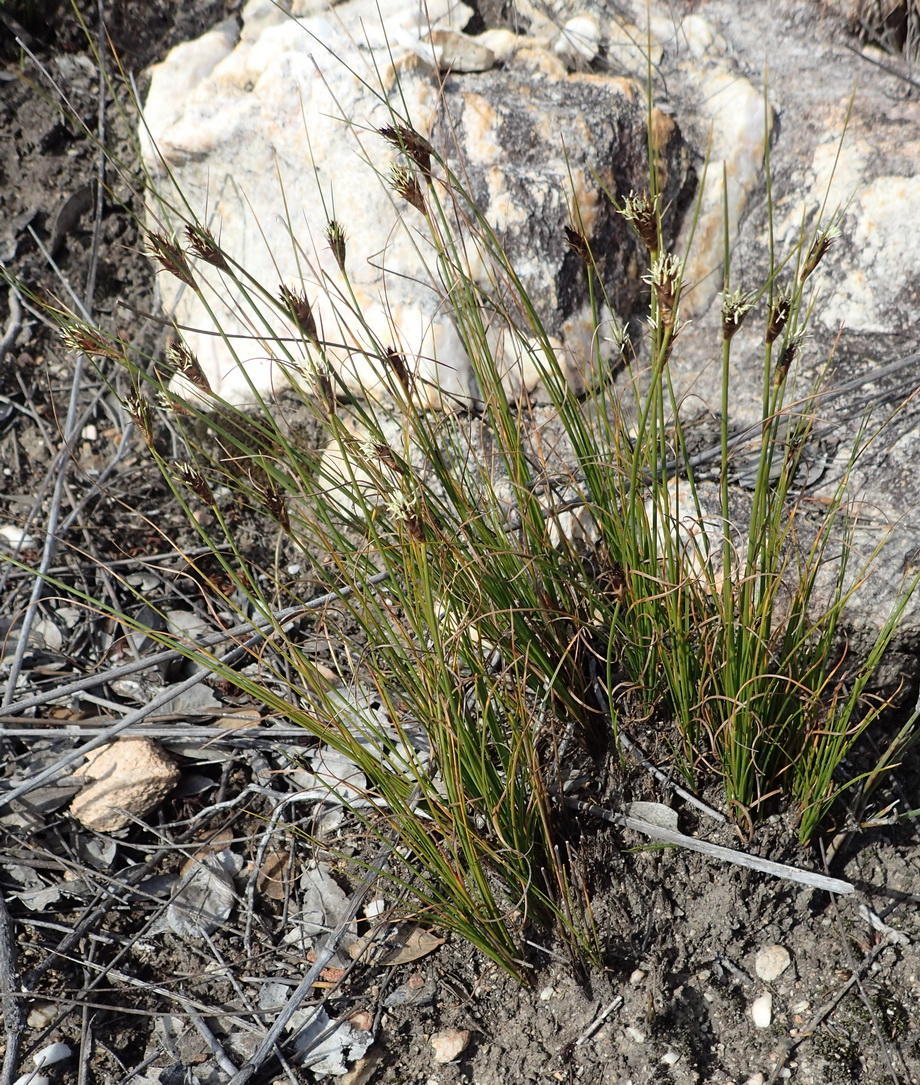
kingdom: Plantae
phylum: Tracheophyta
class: Liliopsida
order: Poales
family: Cyperaceae
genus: Ficinia
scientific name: Ficinia nigrescens
